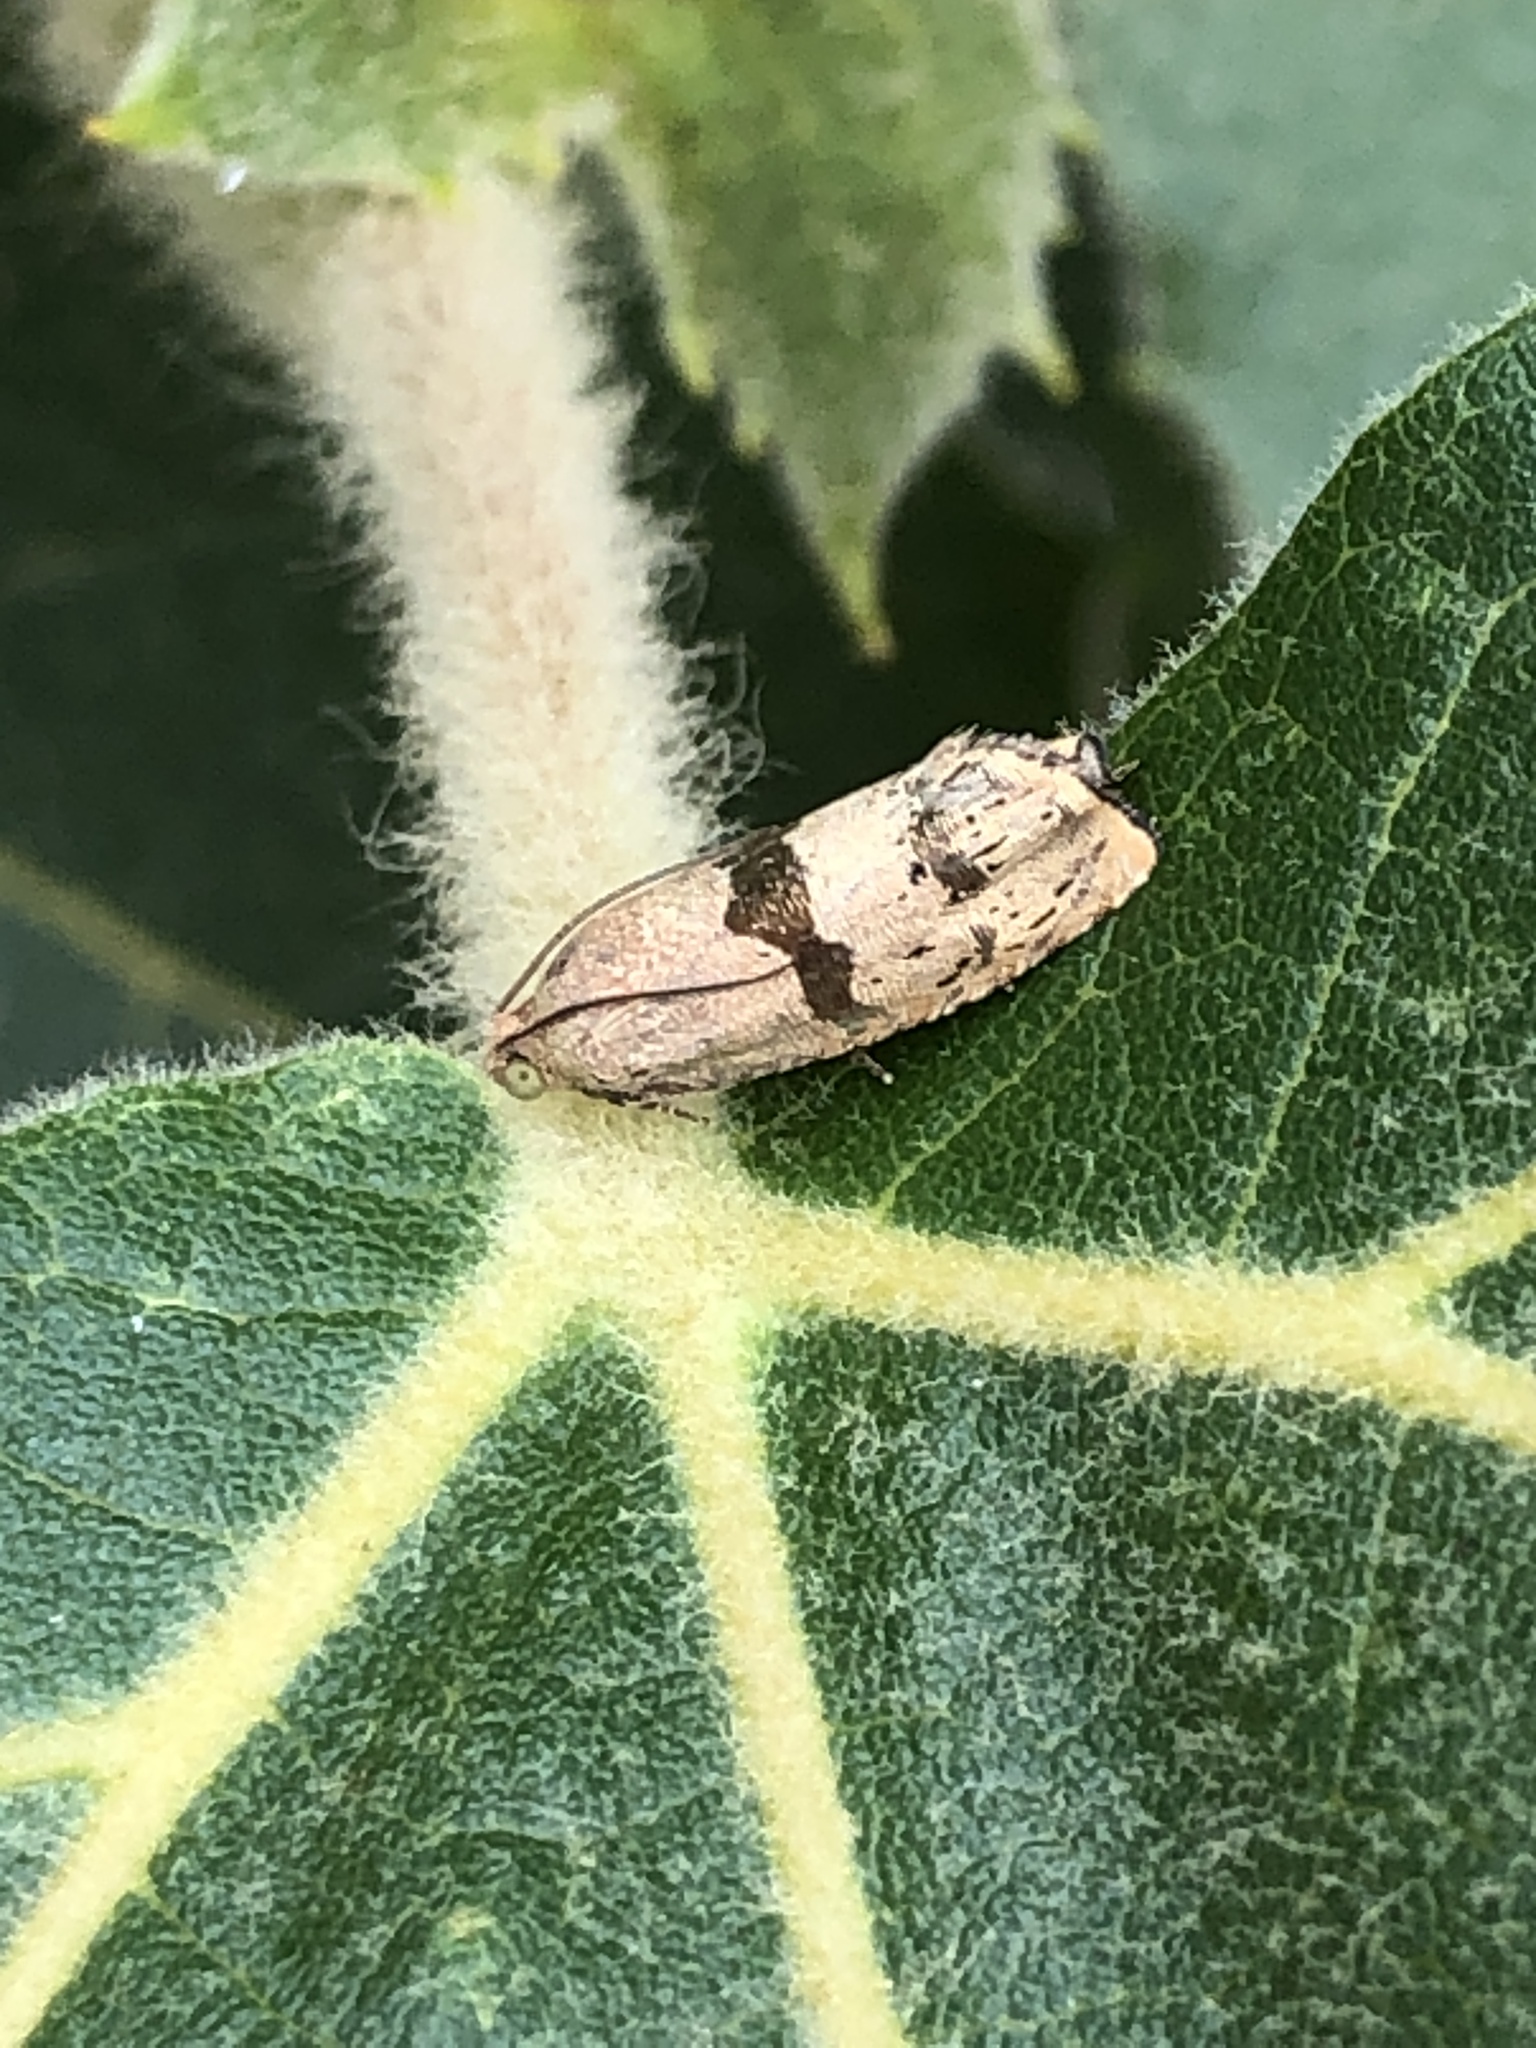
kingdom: Animalia
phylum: Arthropoda
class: Insecta
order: Lepidoptera
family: Tortricidae
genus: Cydia
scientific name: Cydia latiferreana
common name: Filbertworm moth
